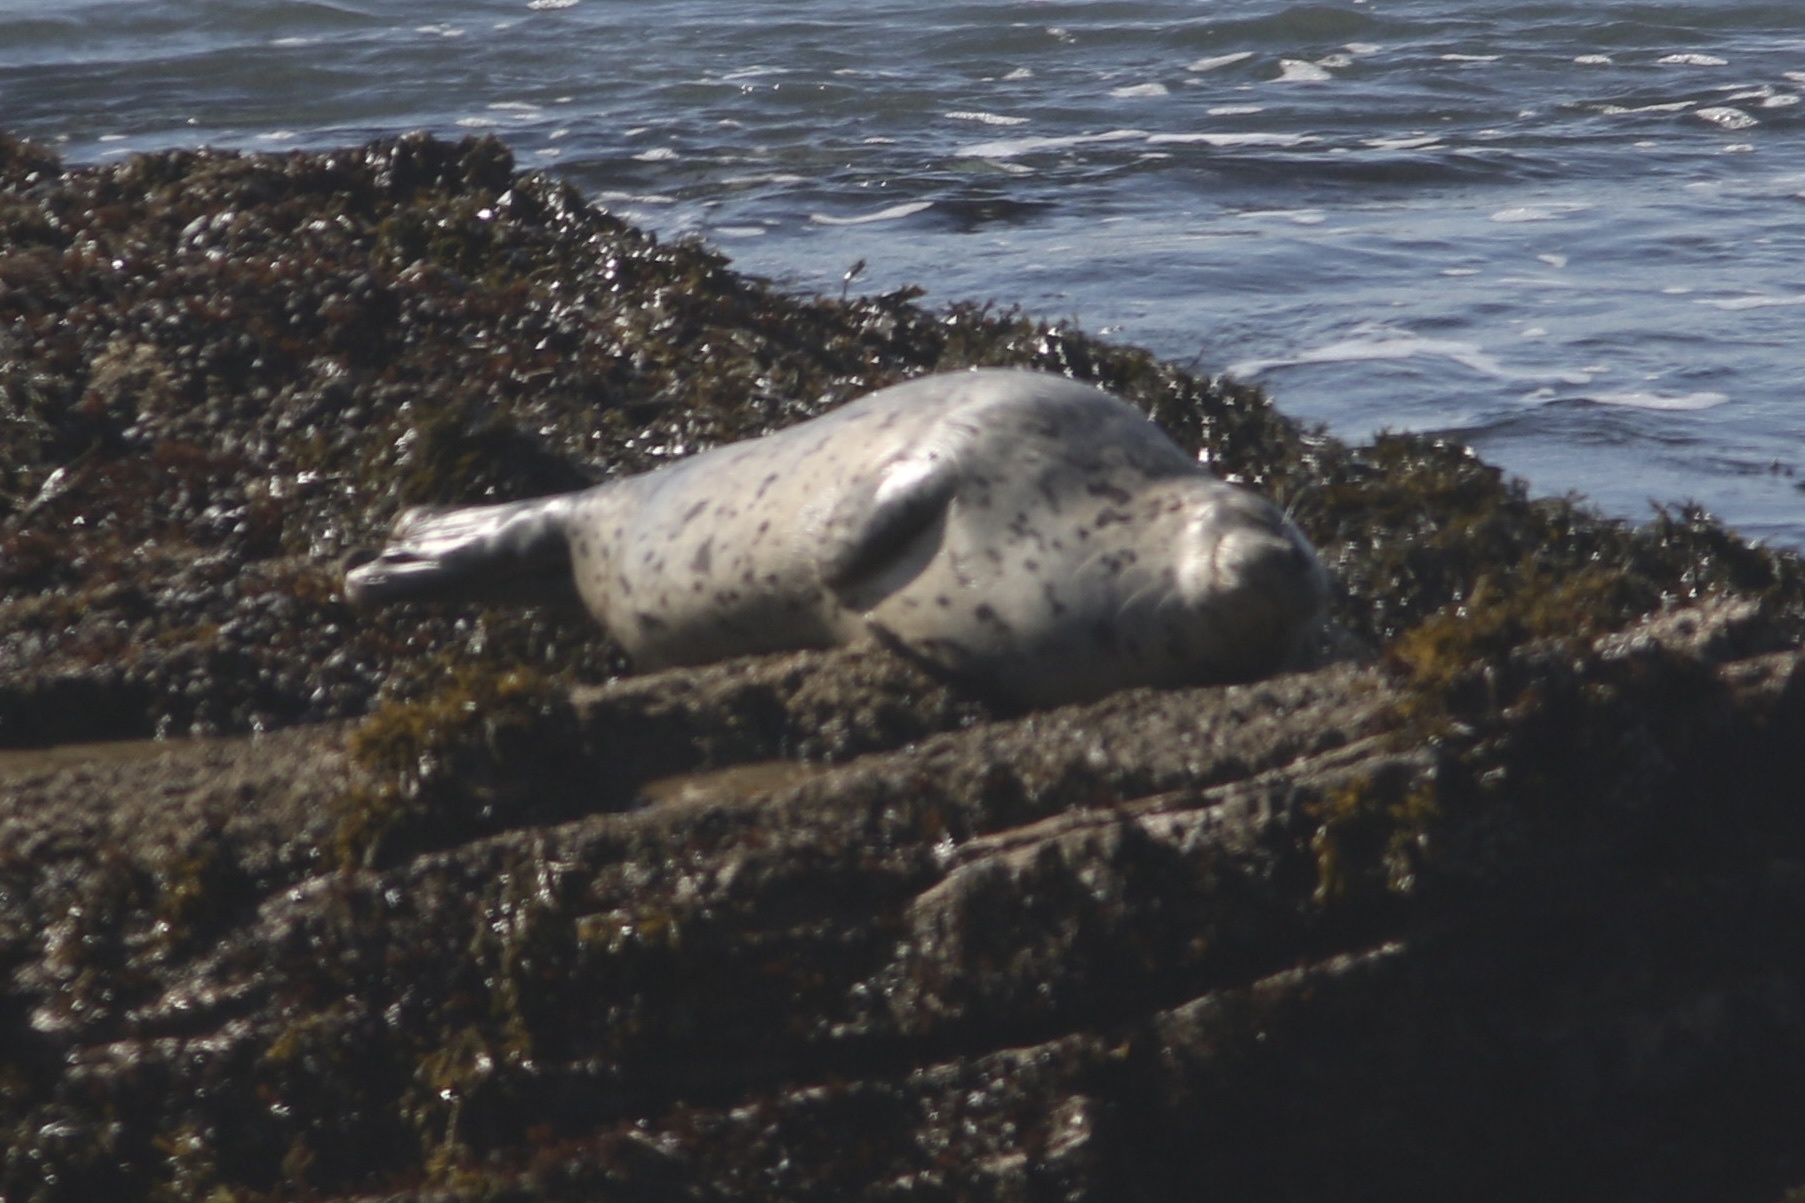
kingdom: Animalia
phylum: Chordata
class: Mammalia
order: Carnivora
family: Phocidae
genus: Phoca
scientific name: Phoca vitulina
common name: Harbor seal
